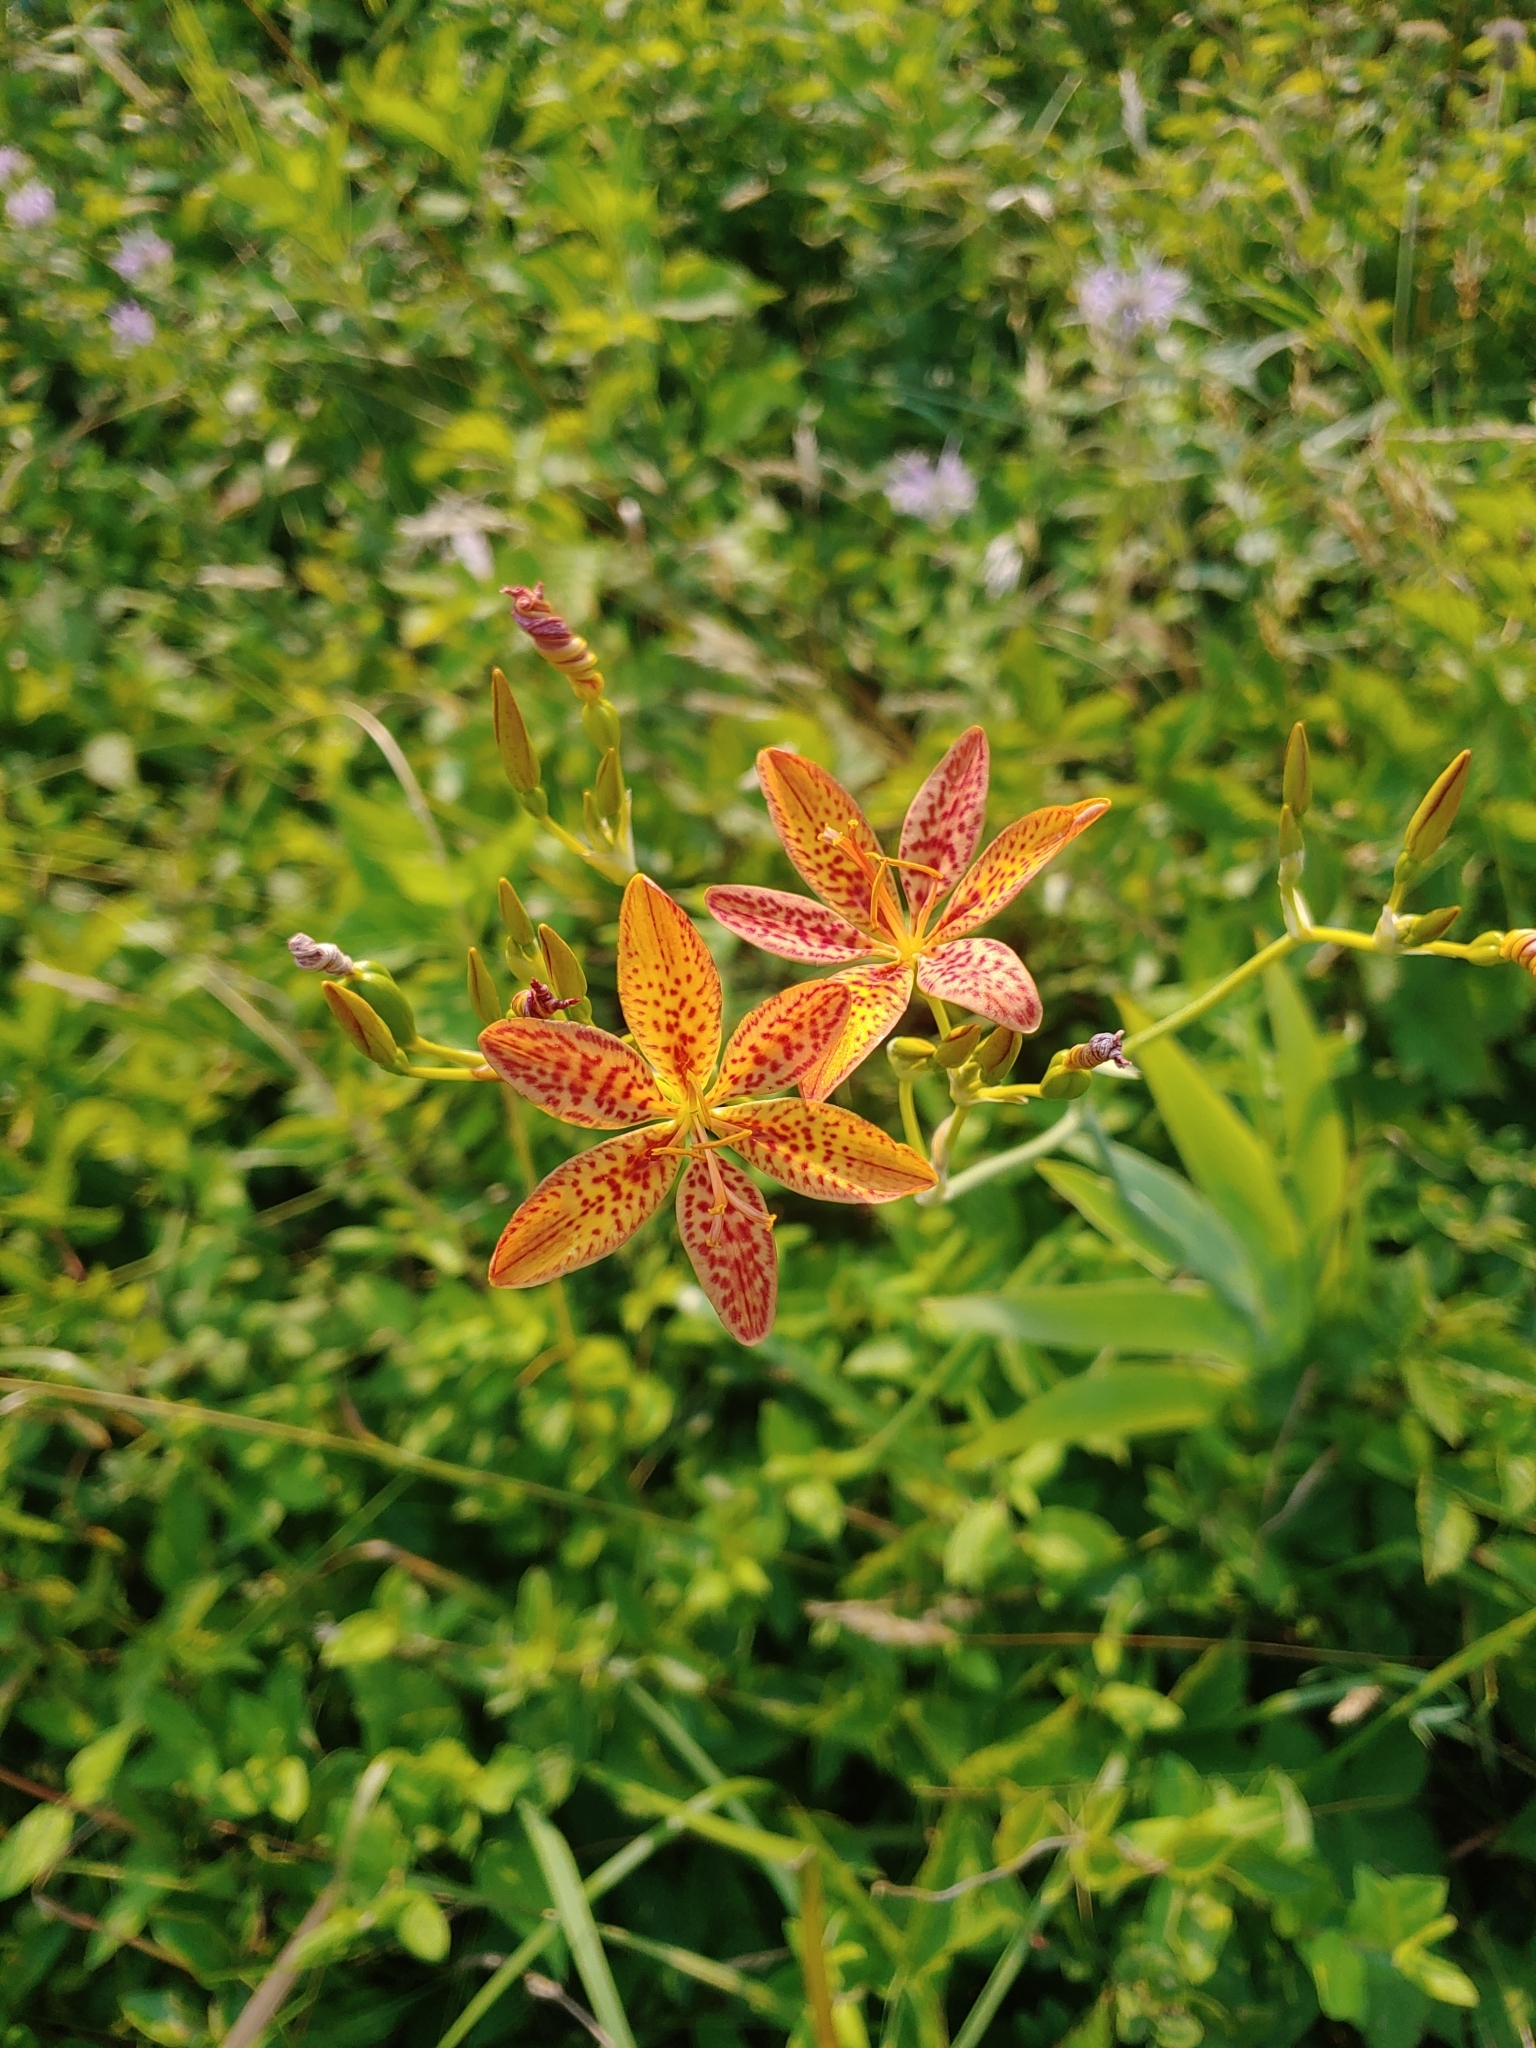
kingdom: Plantae
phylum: Tracheophyta
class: Liliopsida
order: Asparagales
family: Iridaceae
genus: Iris
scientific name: Iris domestica
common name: Belamcanda
